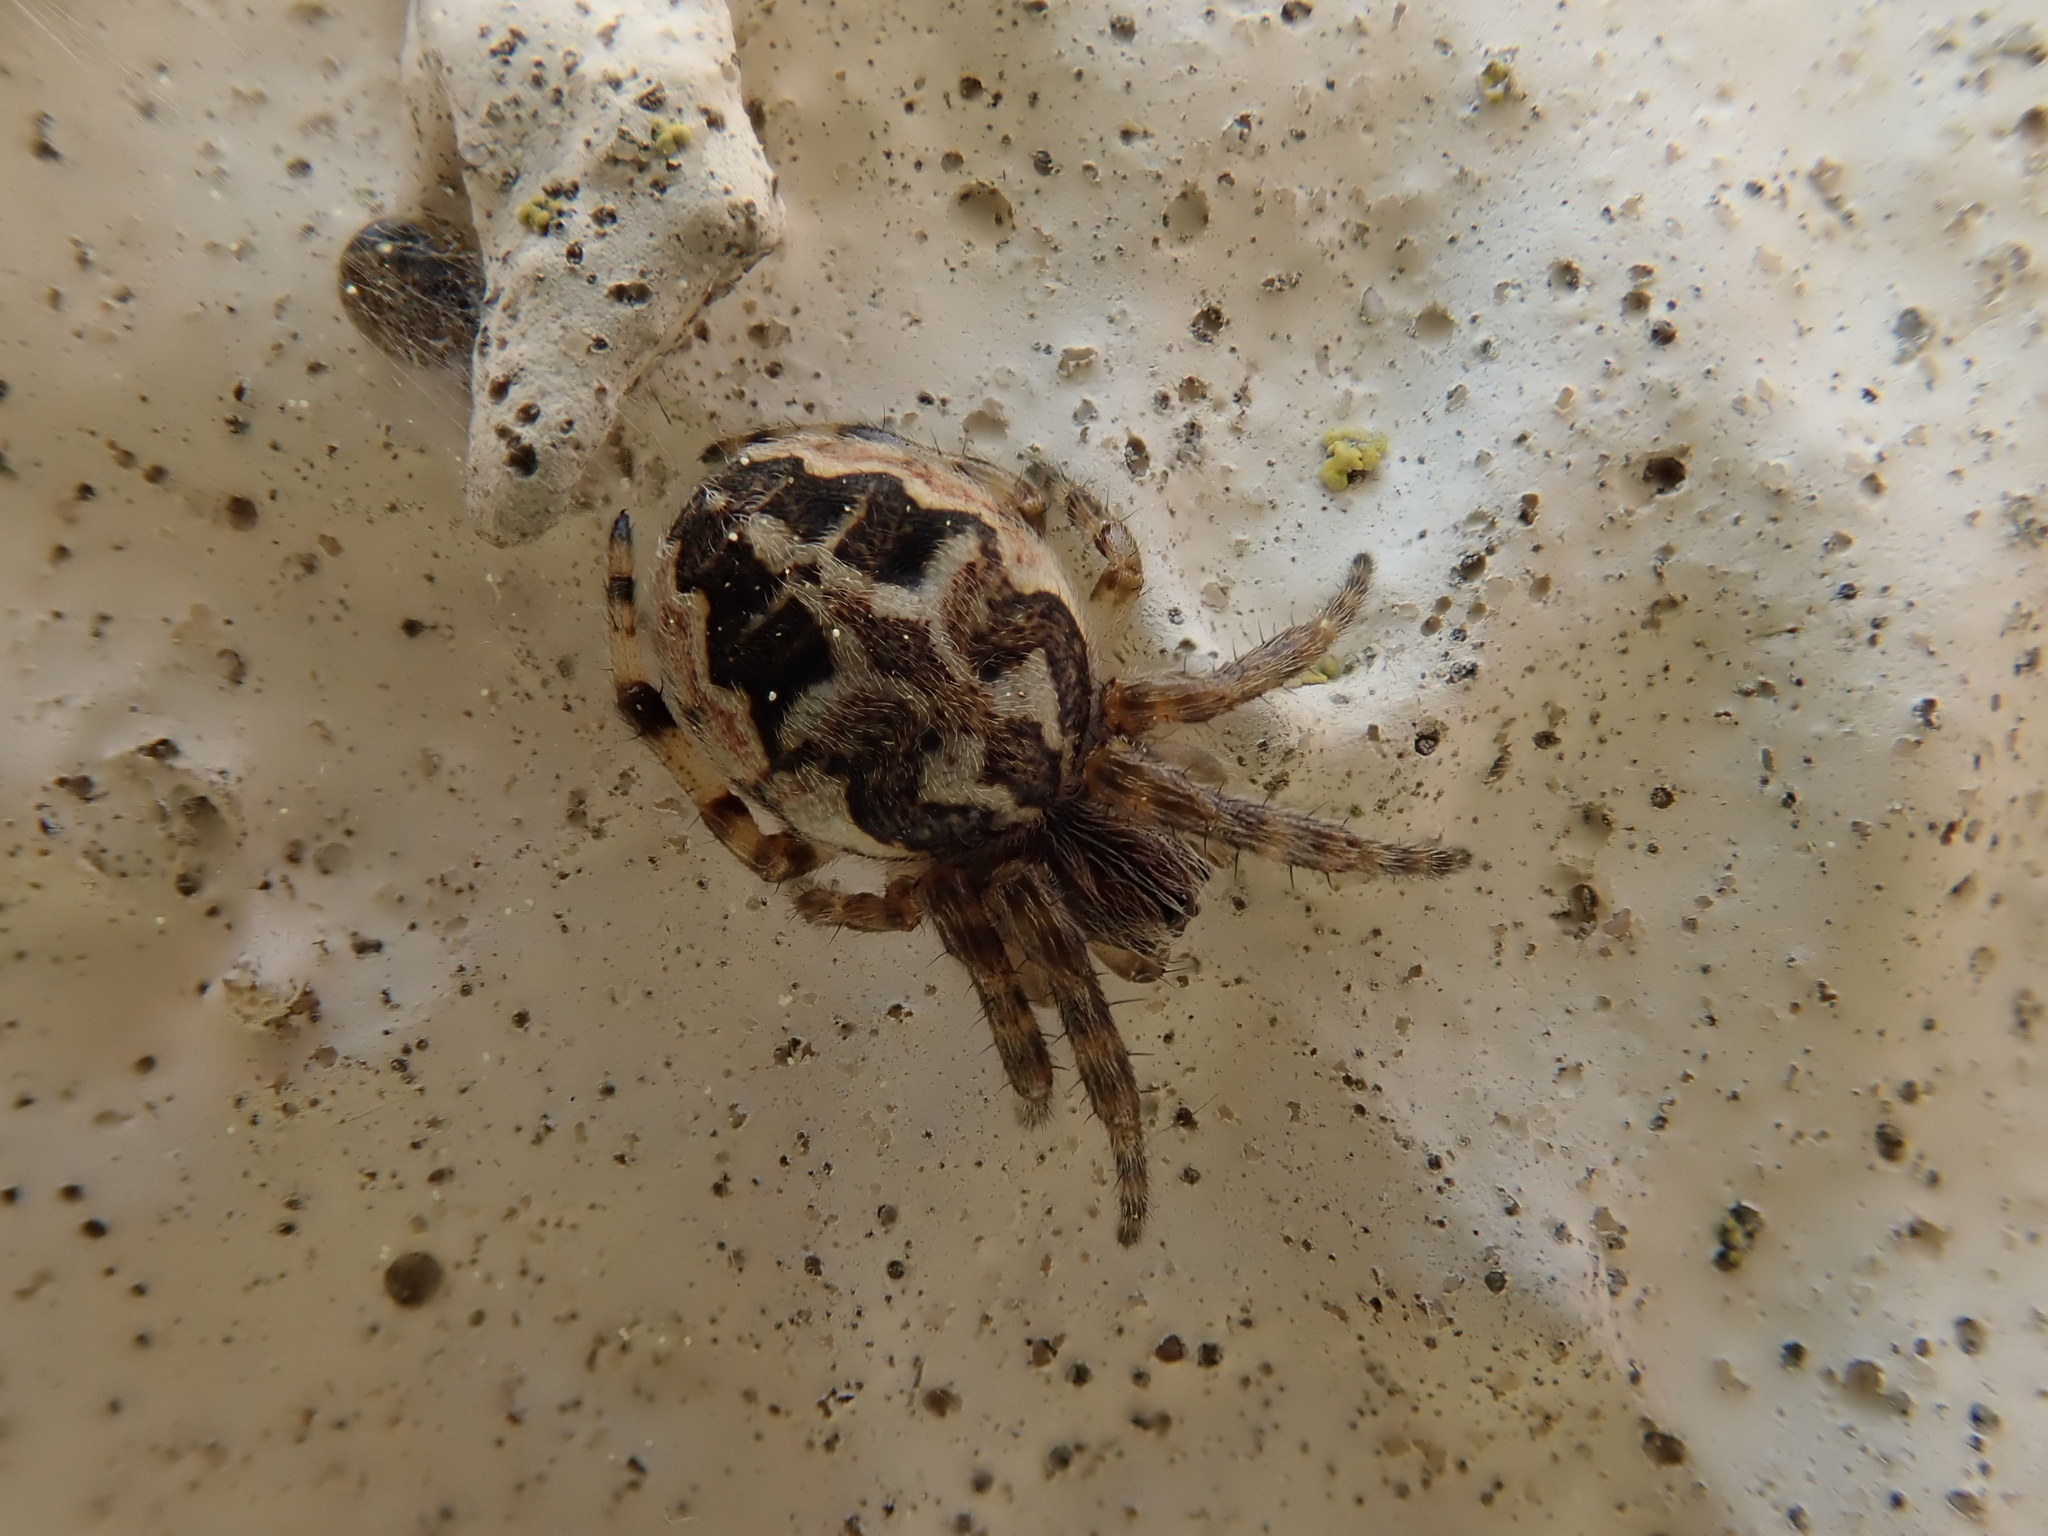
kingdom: Animalia
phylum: Arthropoda
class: Arachnida
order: Araneae
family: Araneidae
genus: Larinioides
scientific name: Larinioides cornutus
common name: Furrow orbweaver
